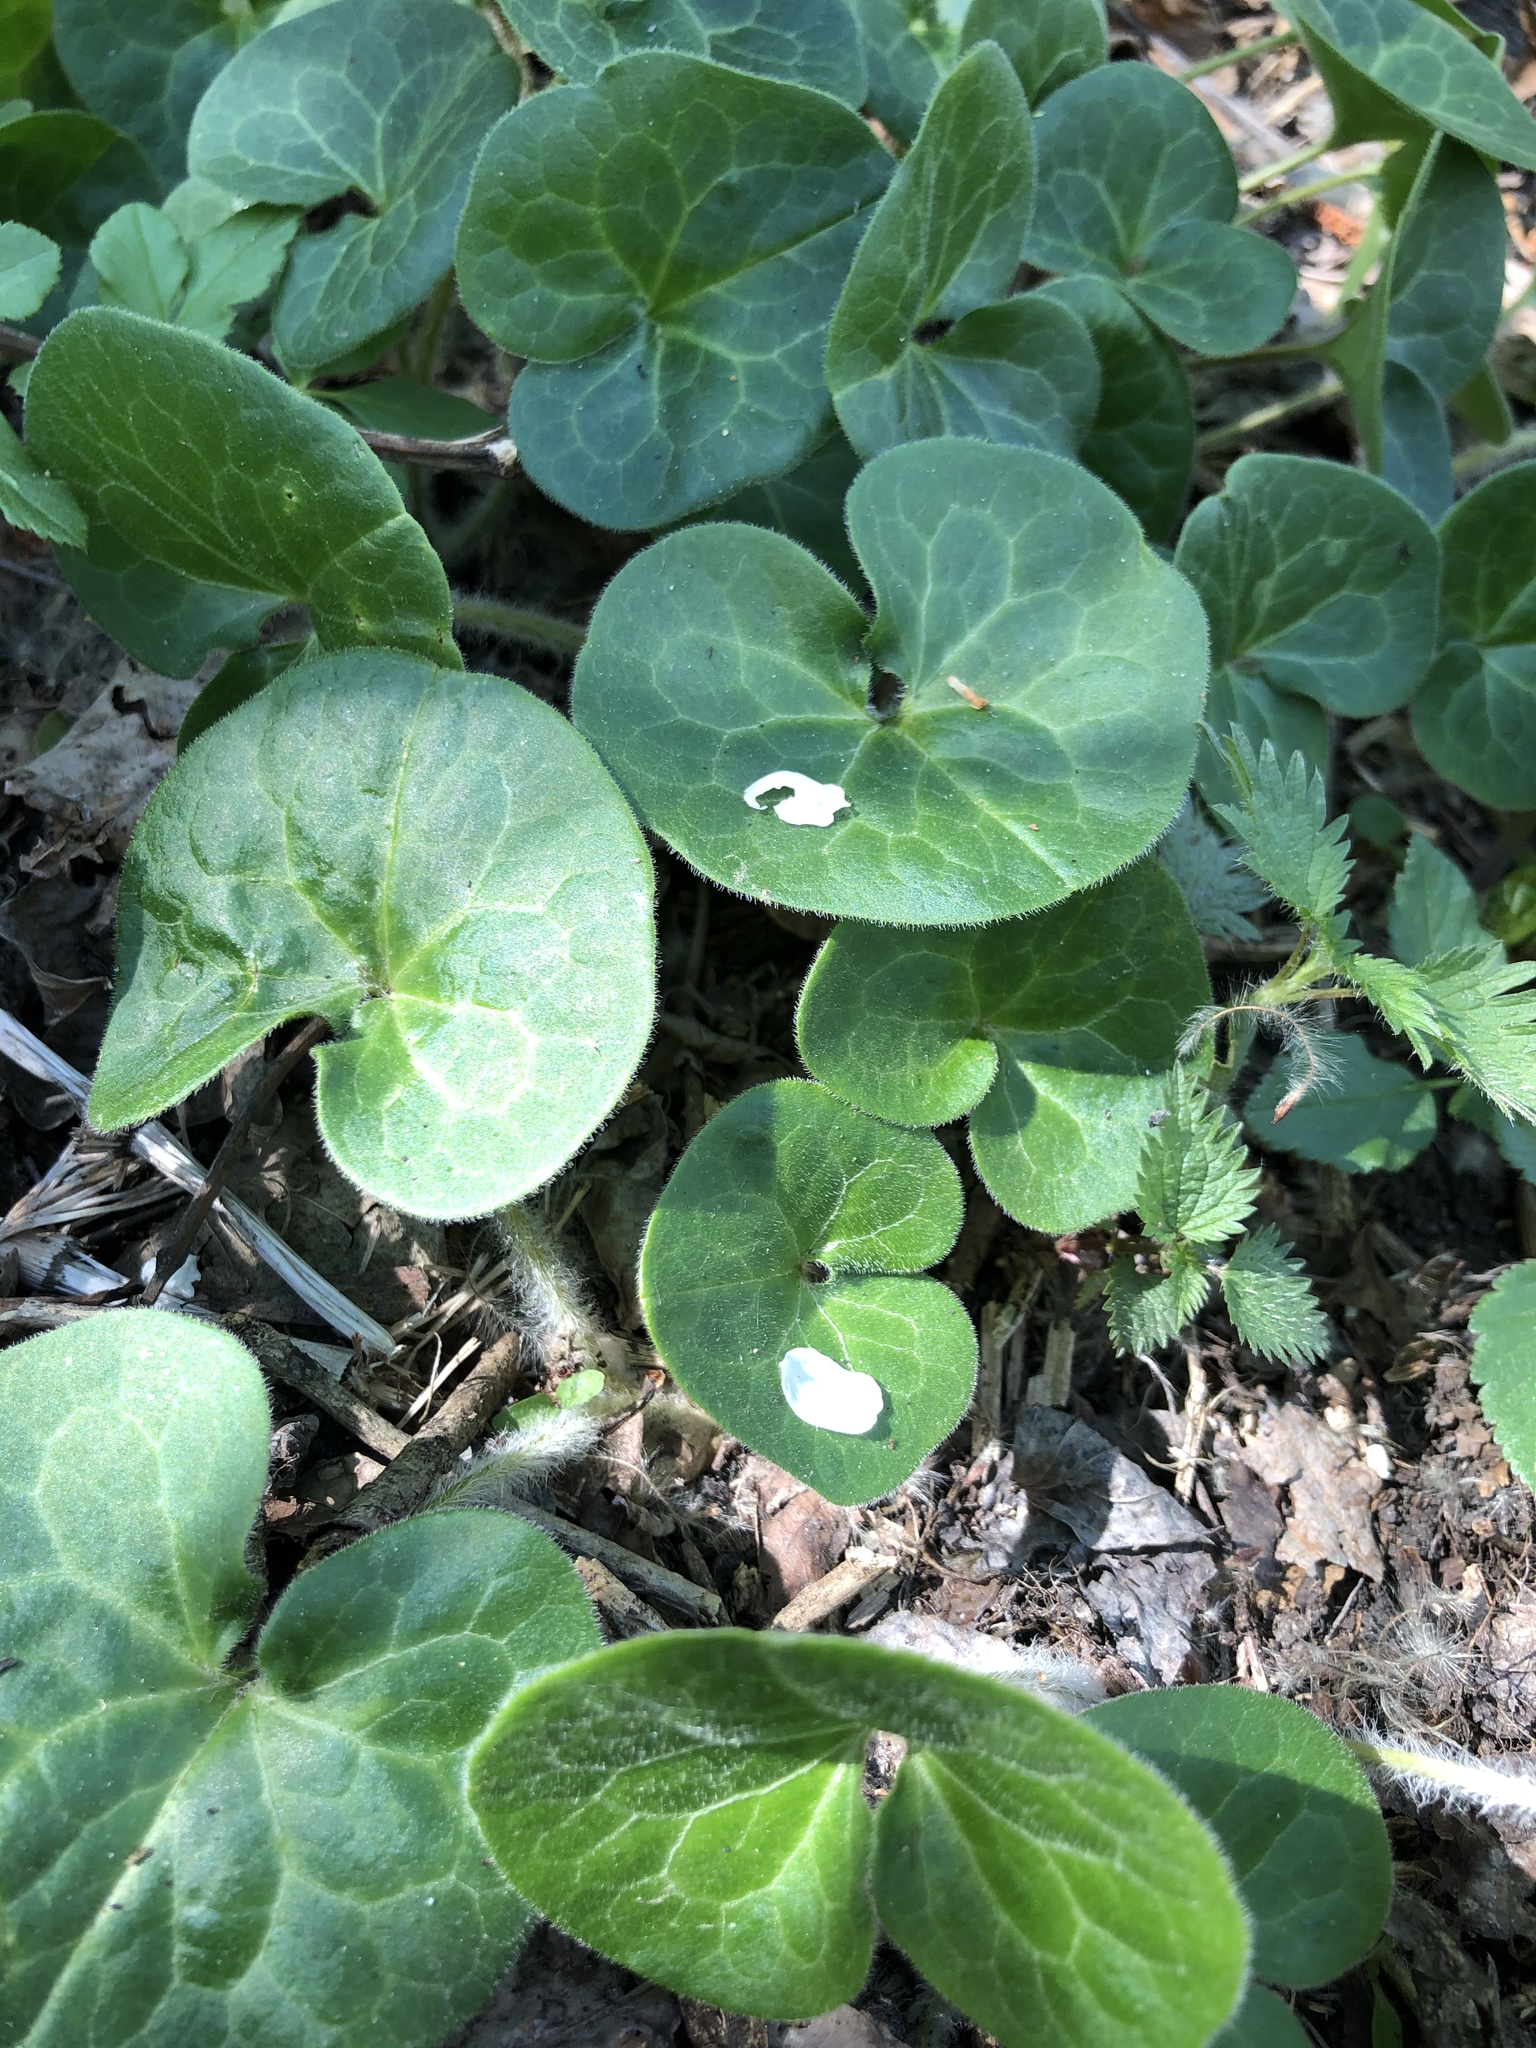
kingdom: Plantae
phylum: Tracheophyta
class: Magnoliopsida
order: Piperales
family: Aristolochiaceae
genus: Asarum
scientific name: Asarum europaeum
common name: Asarabacca
